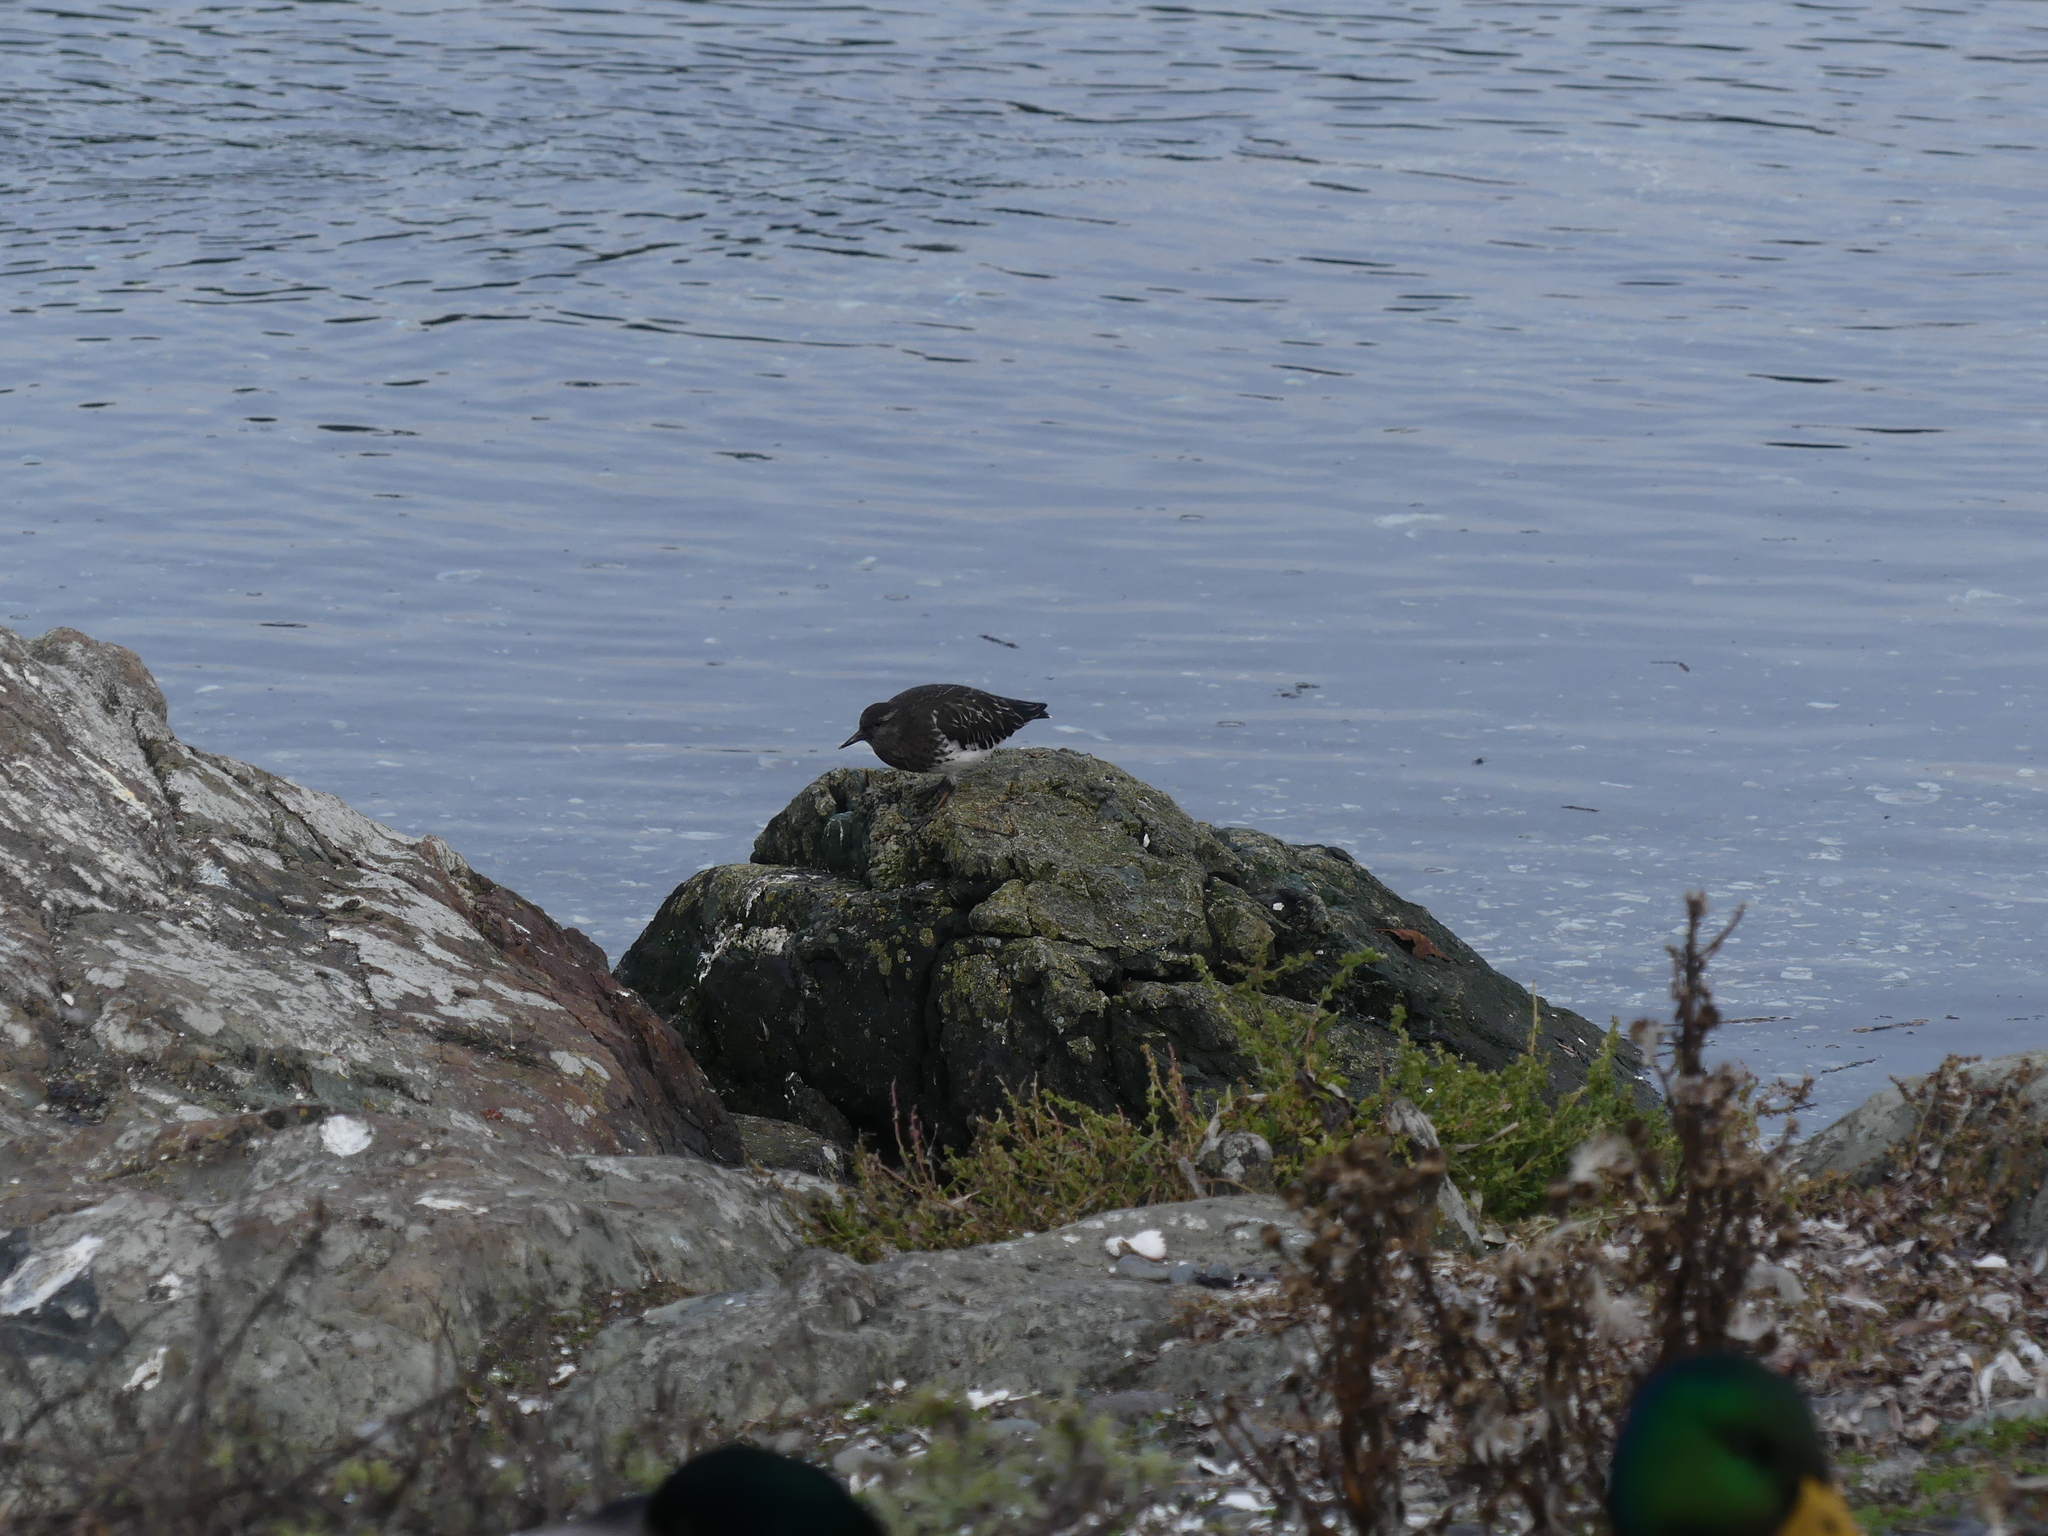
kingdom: Animalia
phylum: Chordata
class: Aves
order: Charadriiformes
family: Scolopacidae
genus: Arenaria
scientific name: Arenaria melanocephala
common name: Black turnstone
